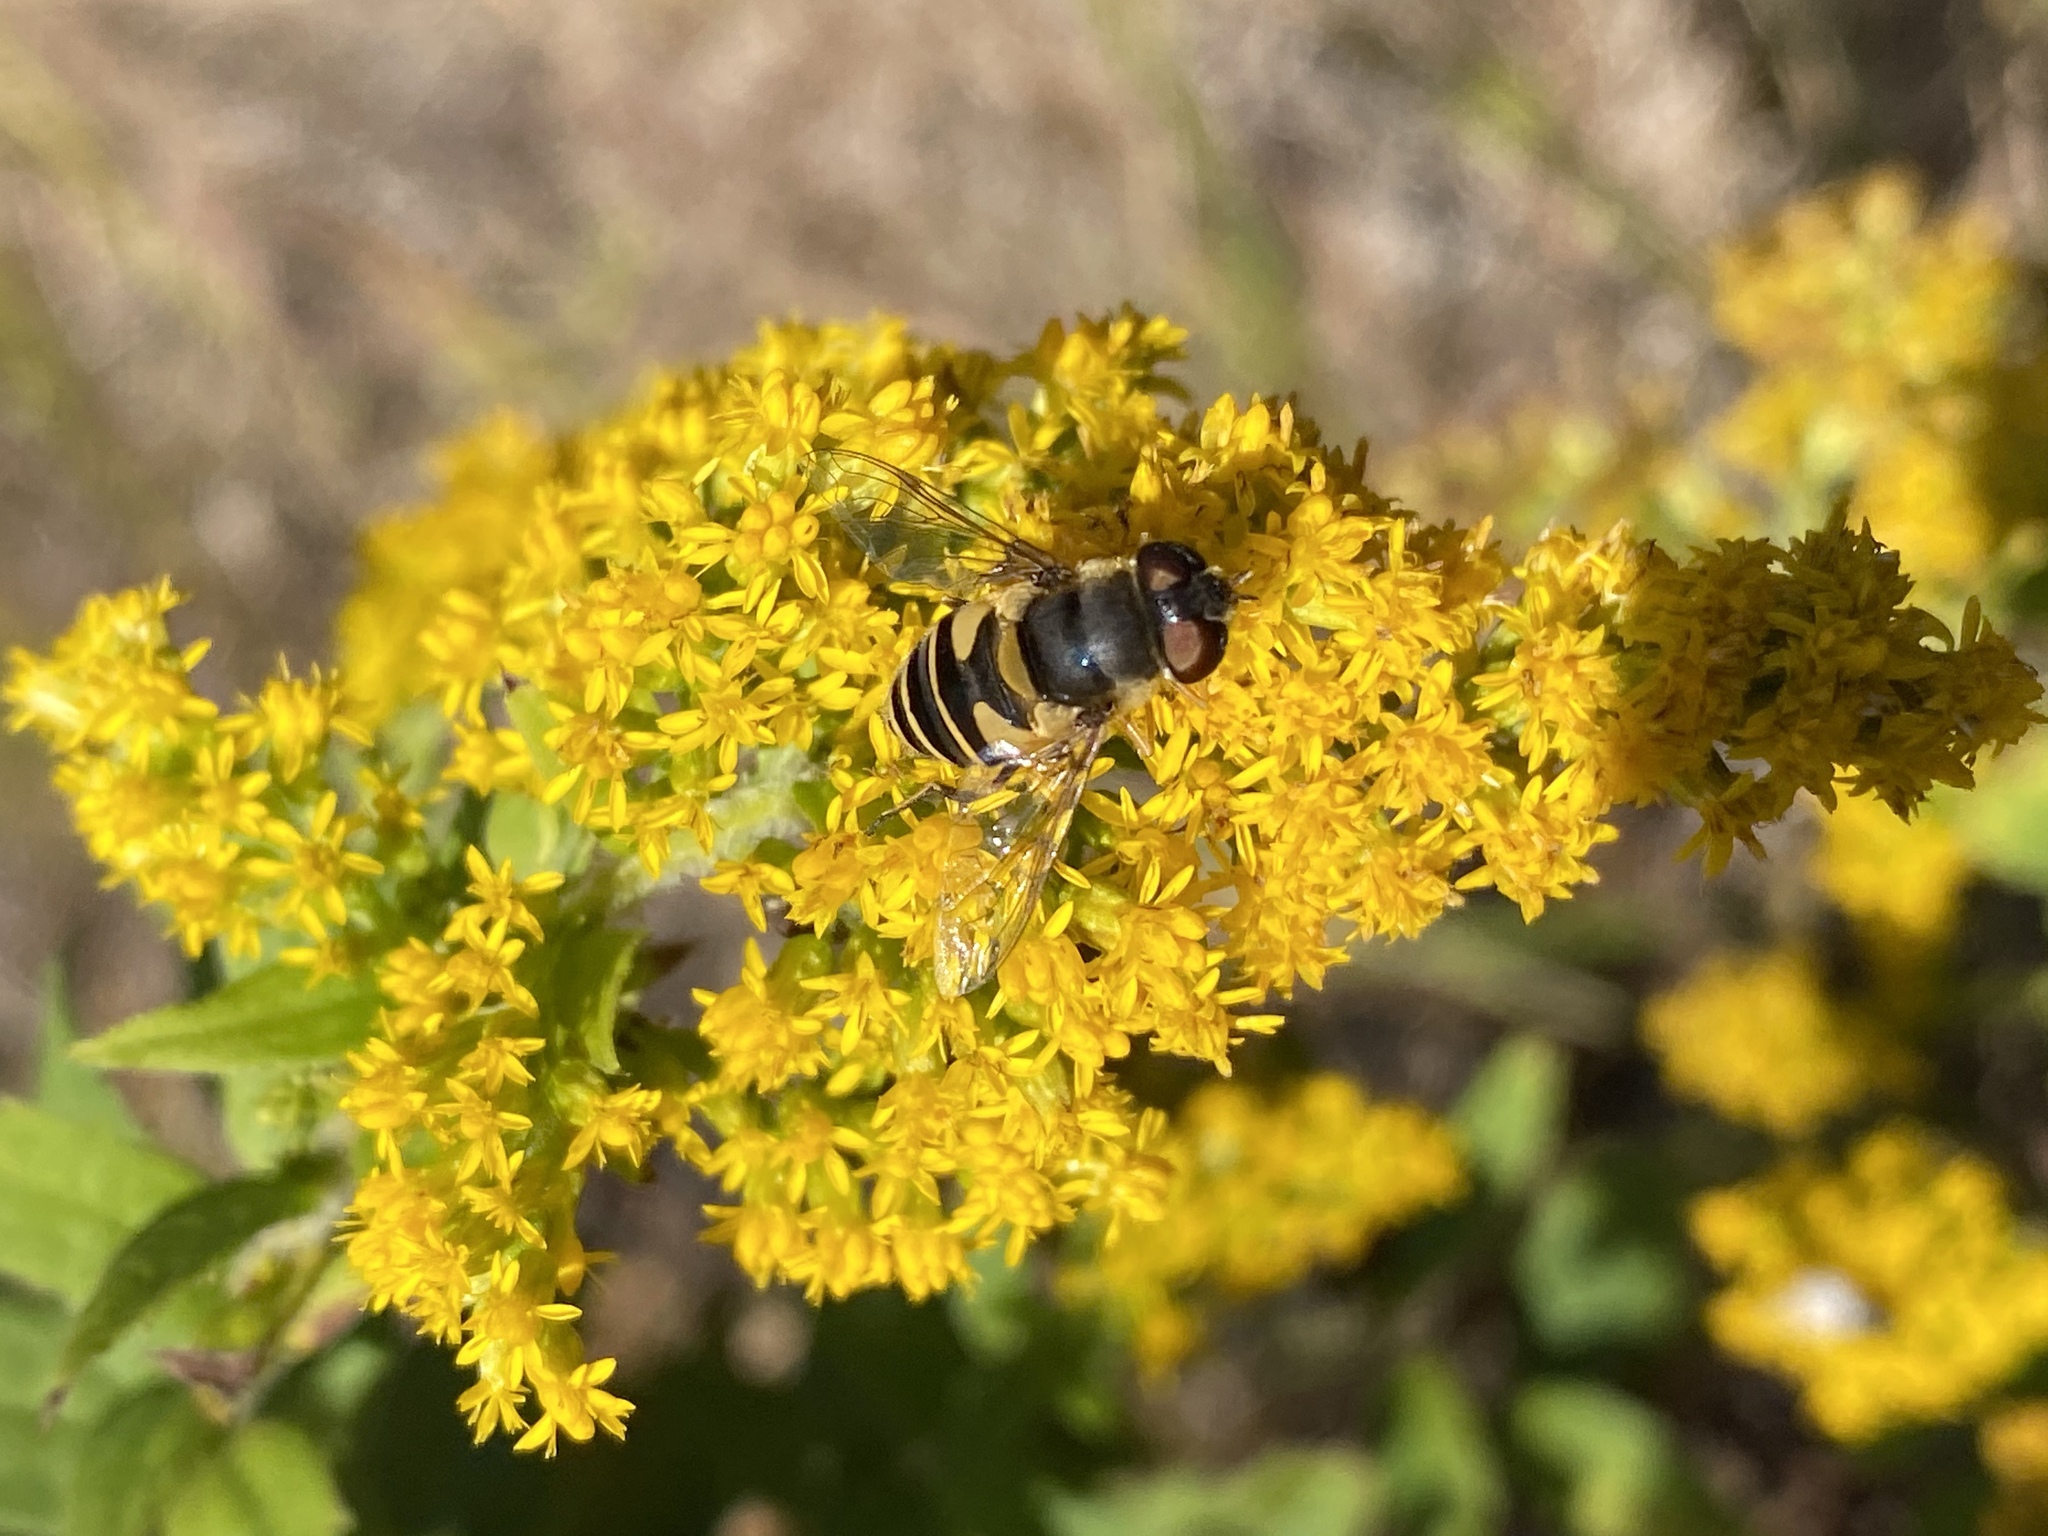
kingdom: Animalia
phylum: Arthropoda
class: Insecta
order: Diptera
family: Syrphidae
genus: Eristalis
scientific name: Eristalis transversa
